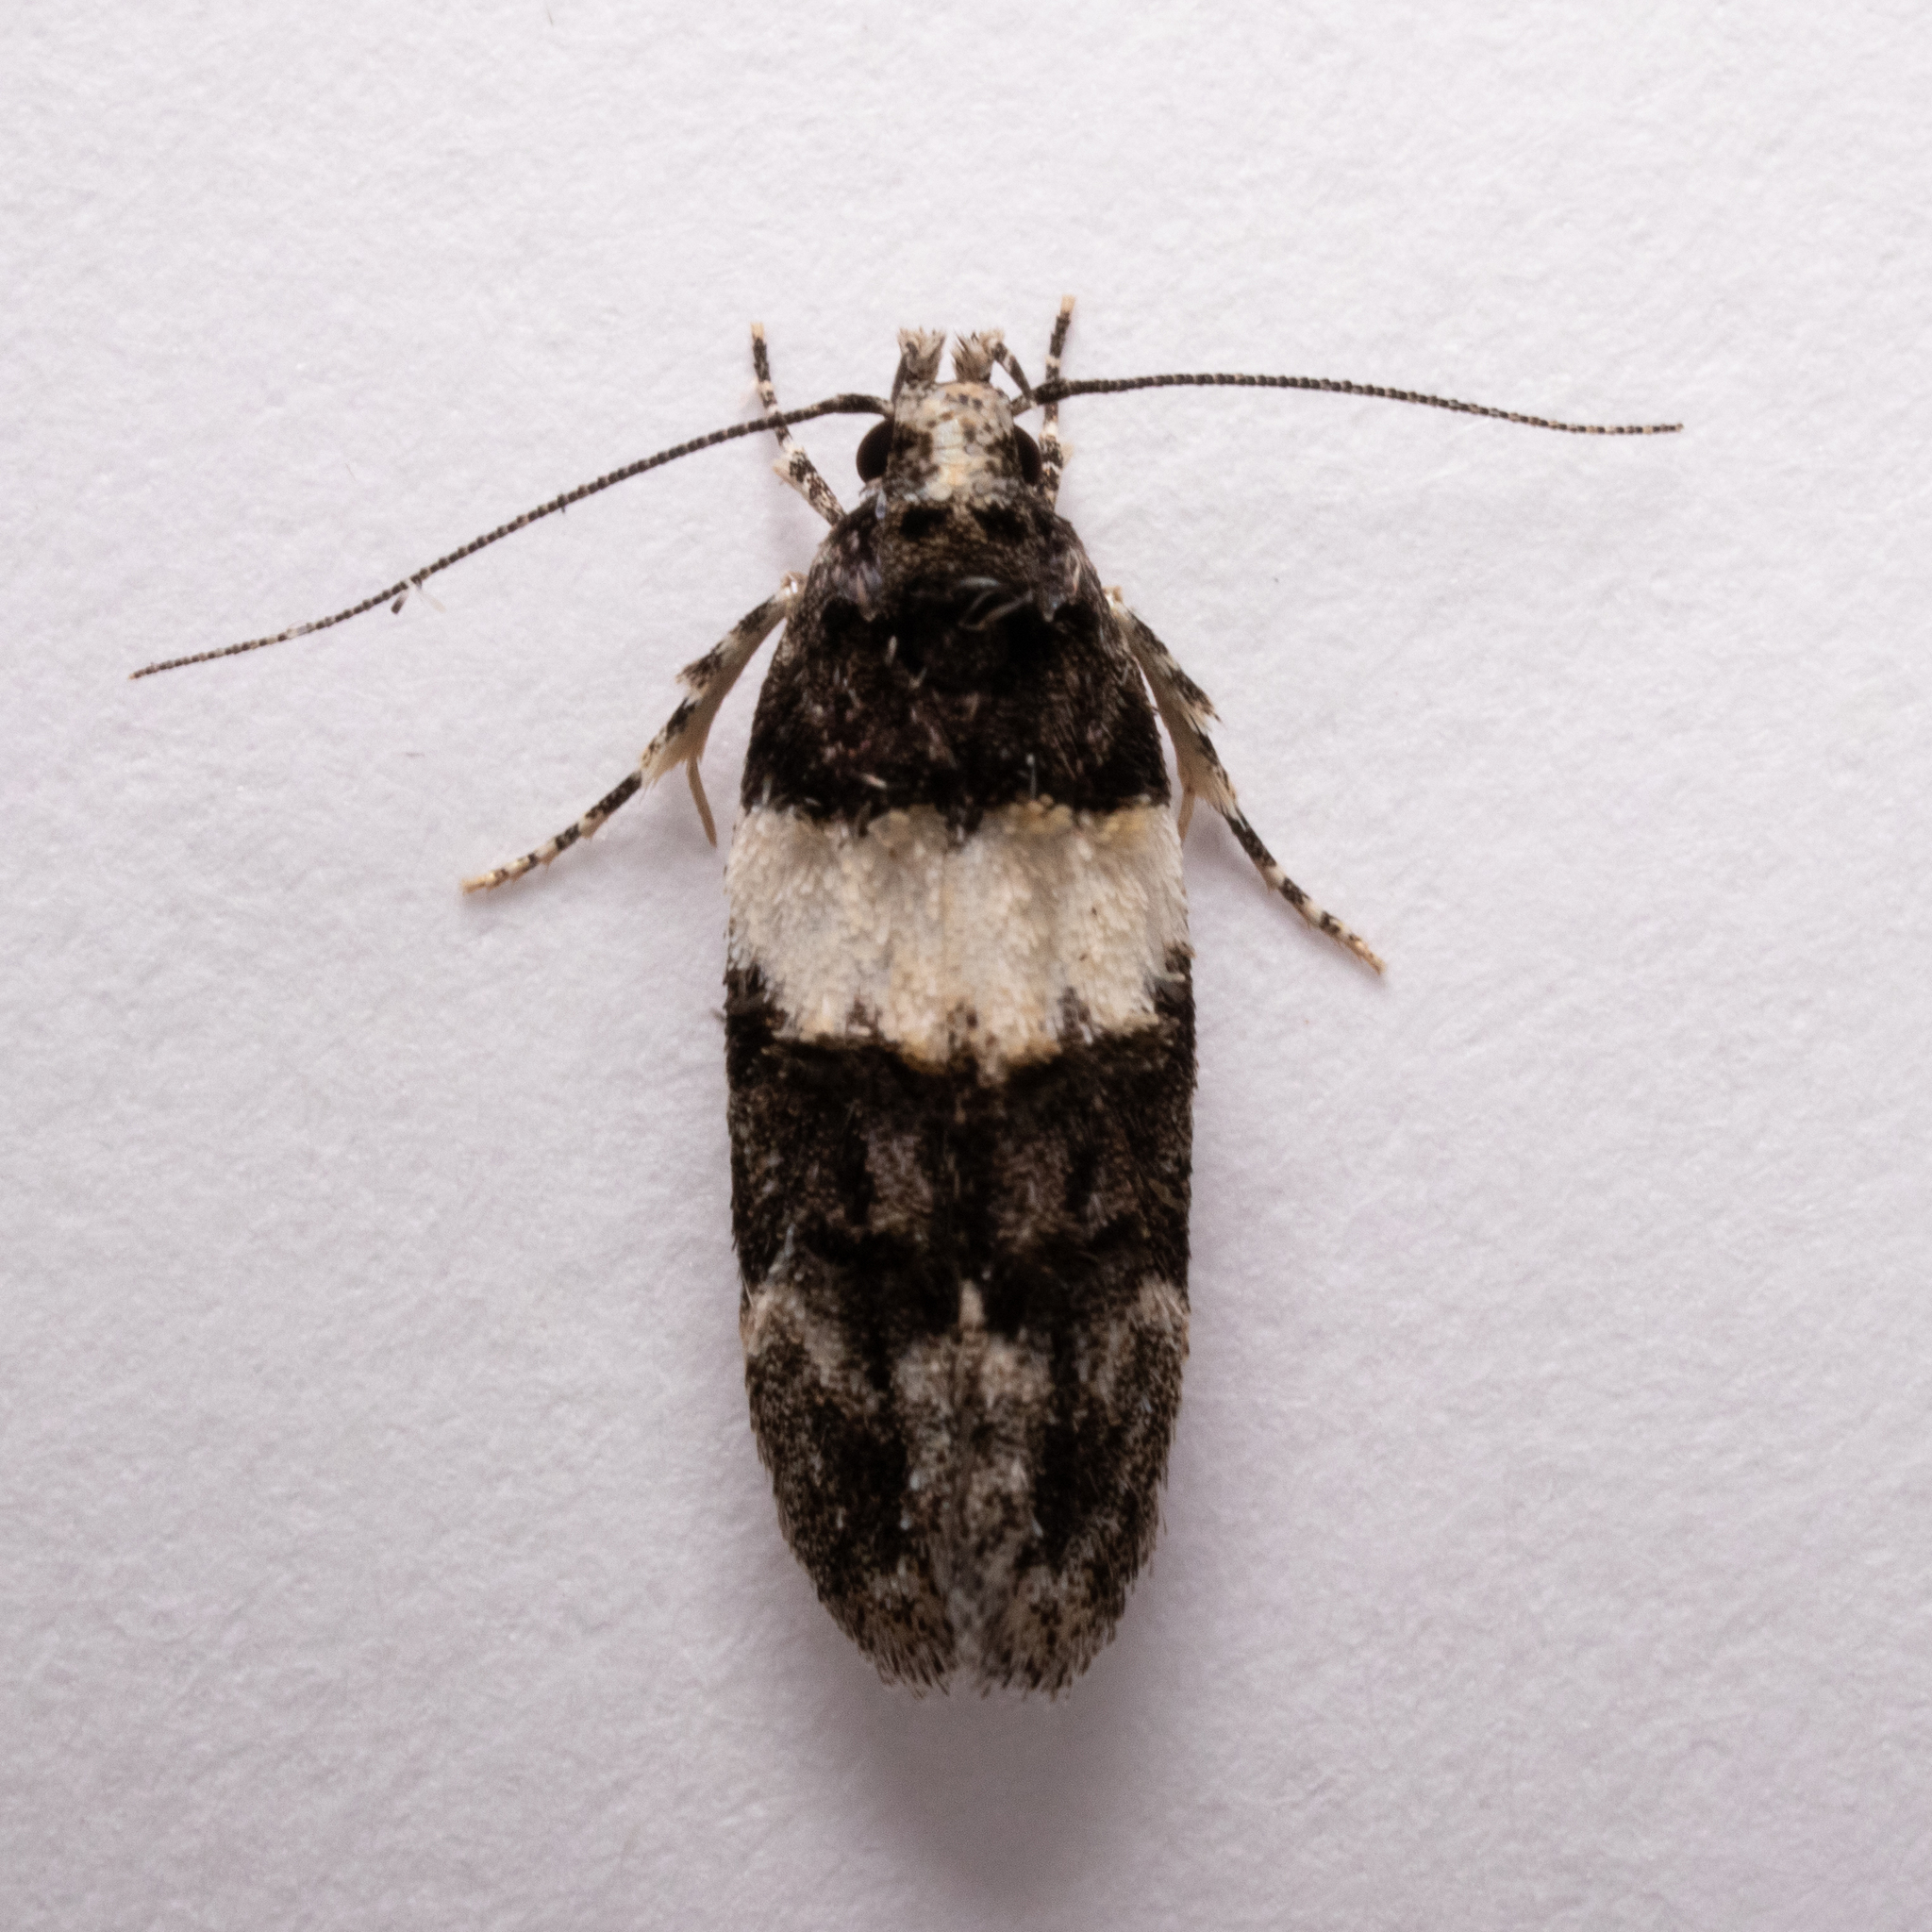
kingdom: Animalia
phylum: Arthropoda
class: Insecta
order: Lepidoptera
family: Gelechiidae
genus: Pubitelphusa
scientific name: Pubitelphusa latifasciella
